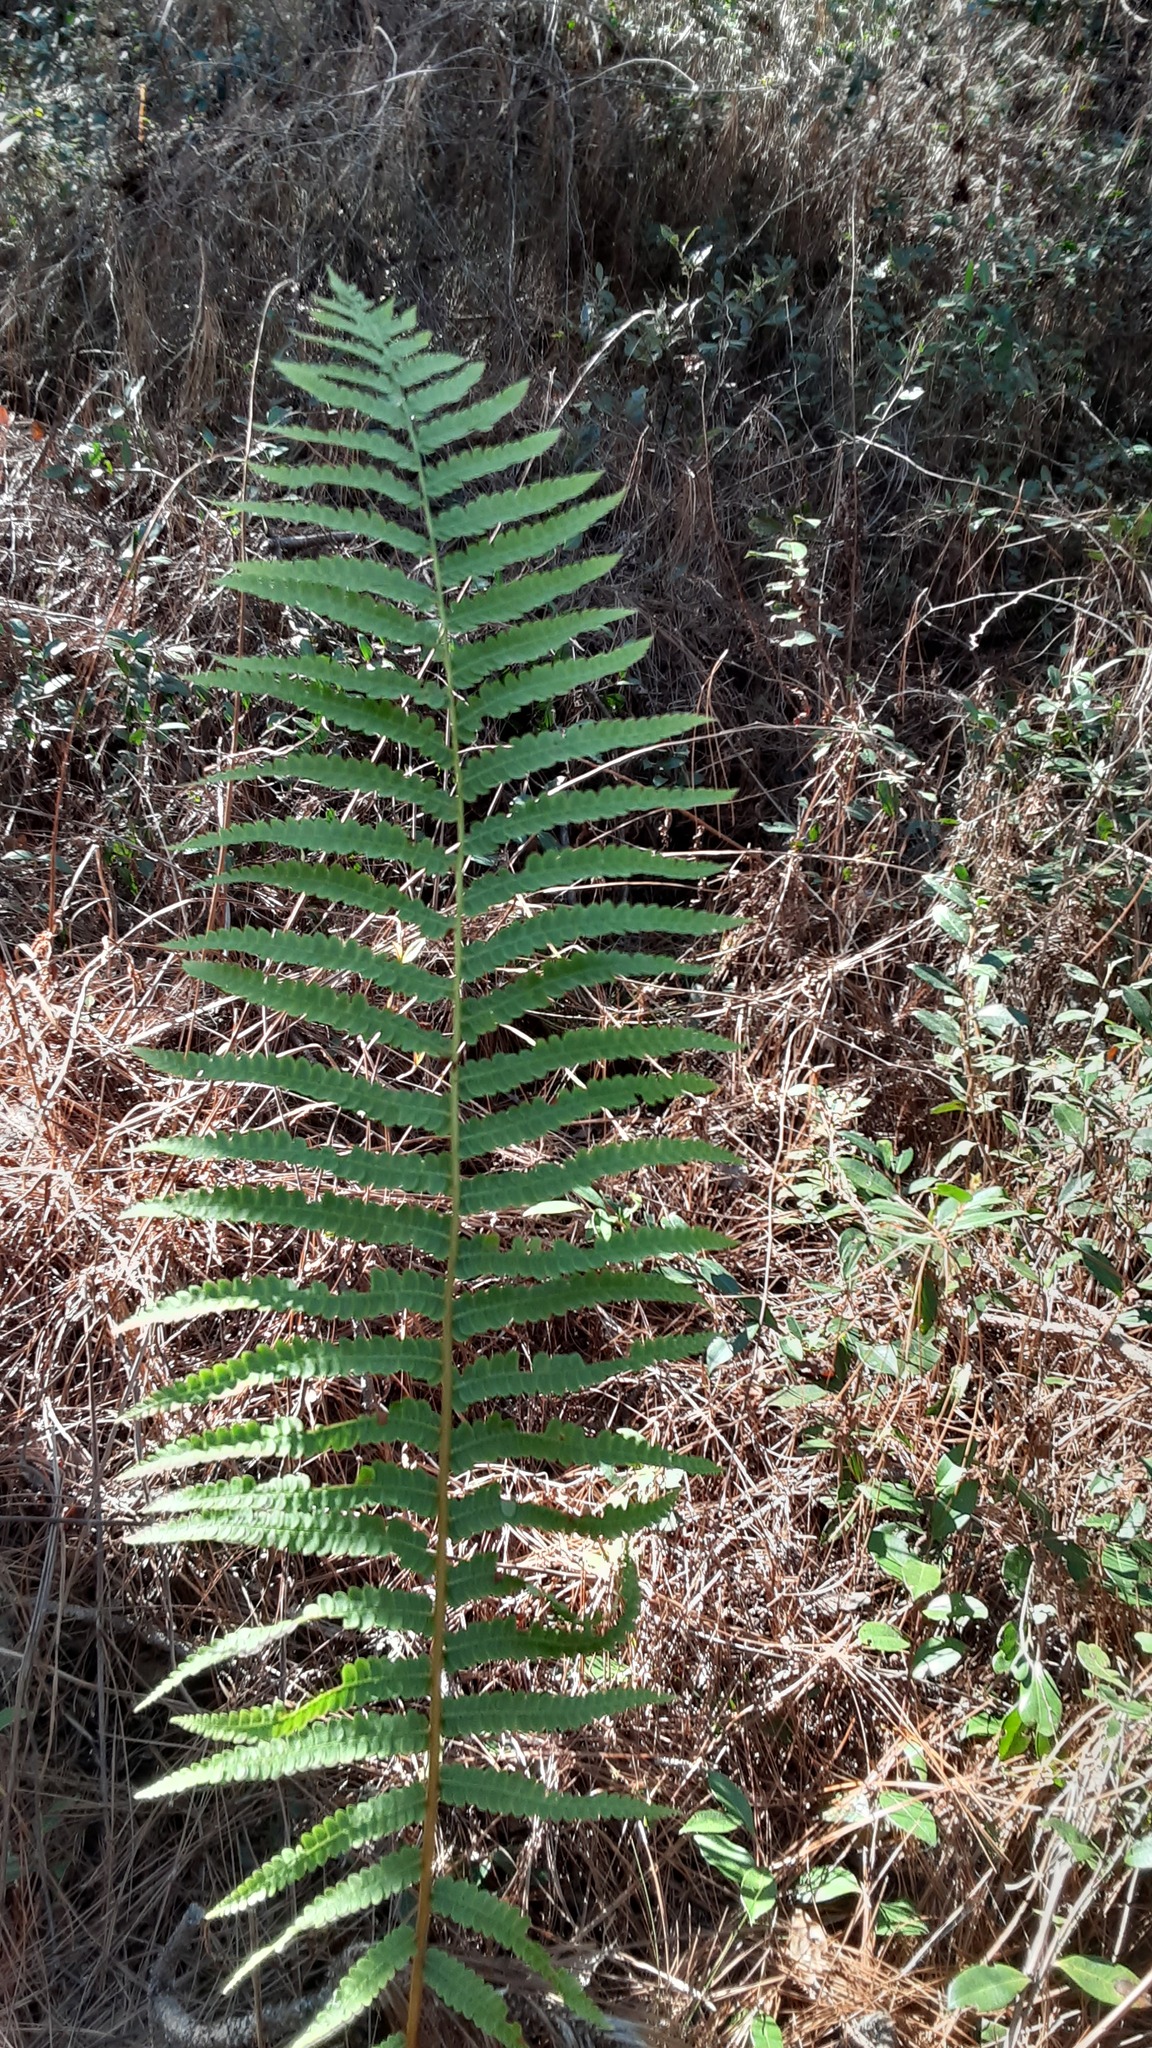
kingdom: Plantae
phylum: Tracheophyta
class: Polypodiopsida
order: Osmundales
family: Osmundaceae
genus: Osmundastrum
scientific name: Osmundastrum cinnamomeum
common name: Cinnamon fern
